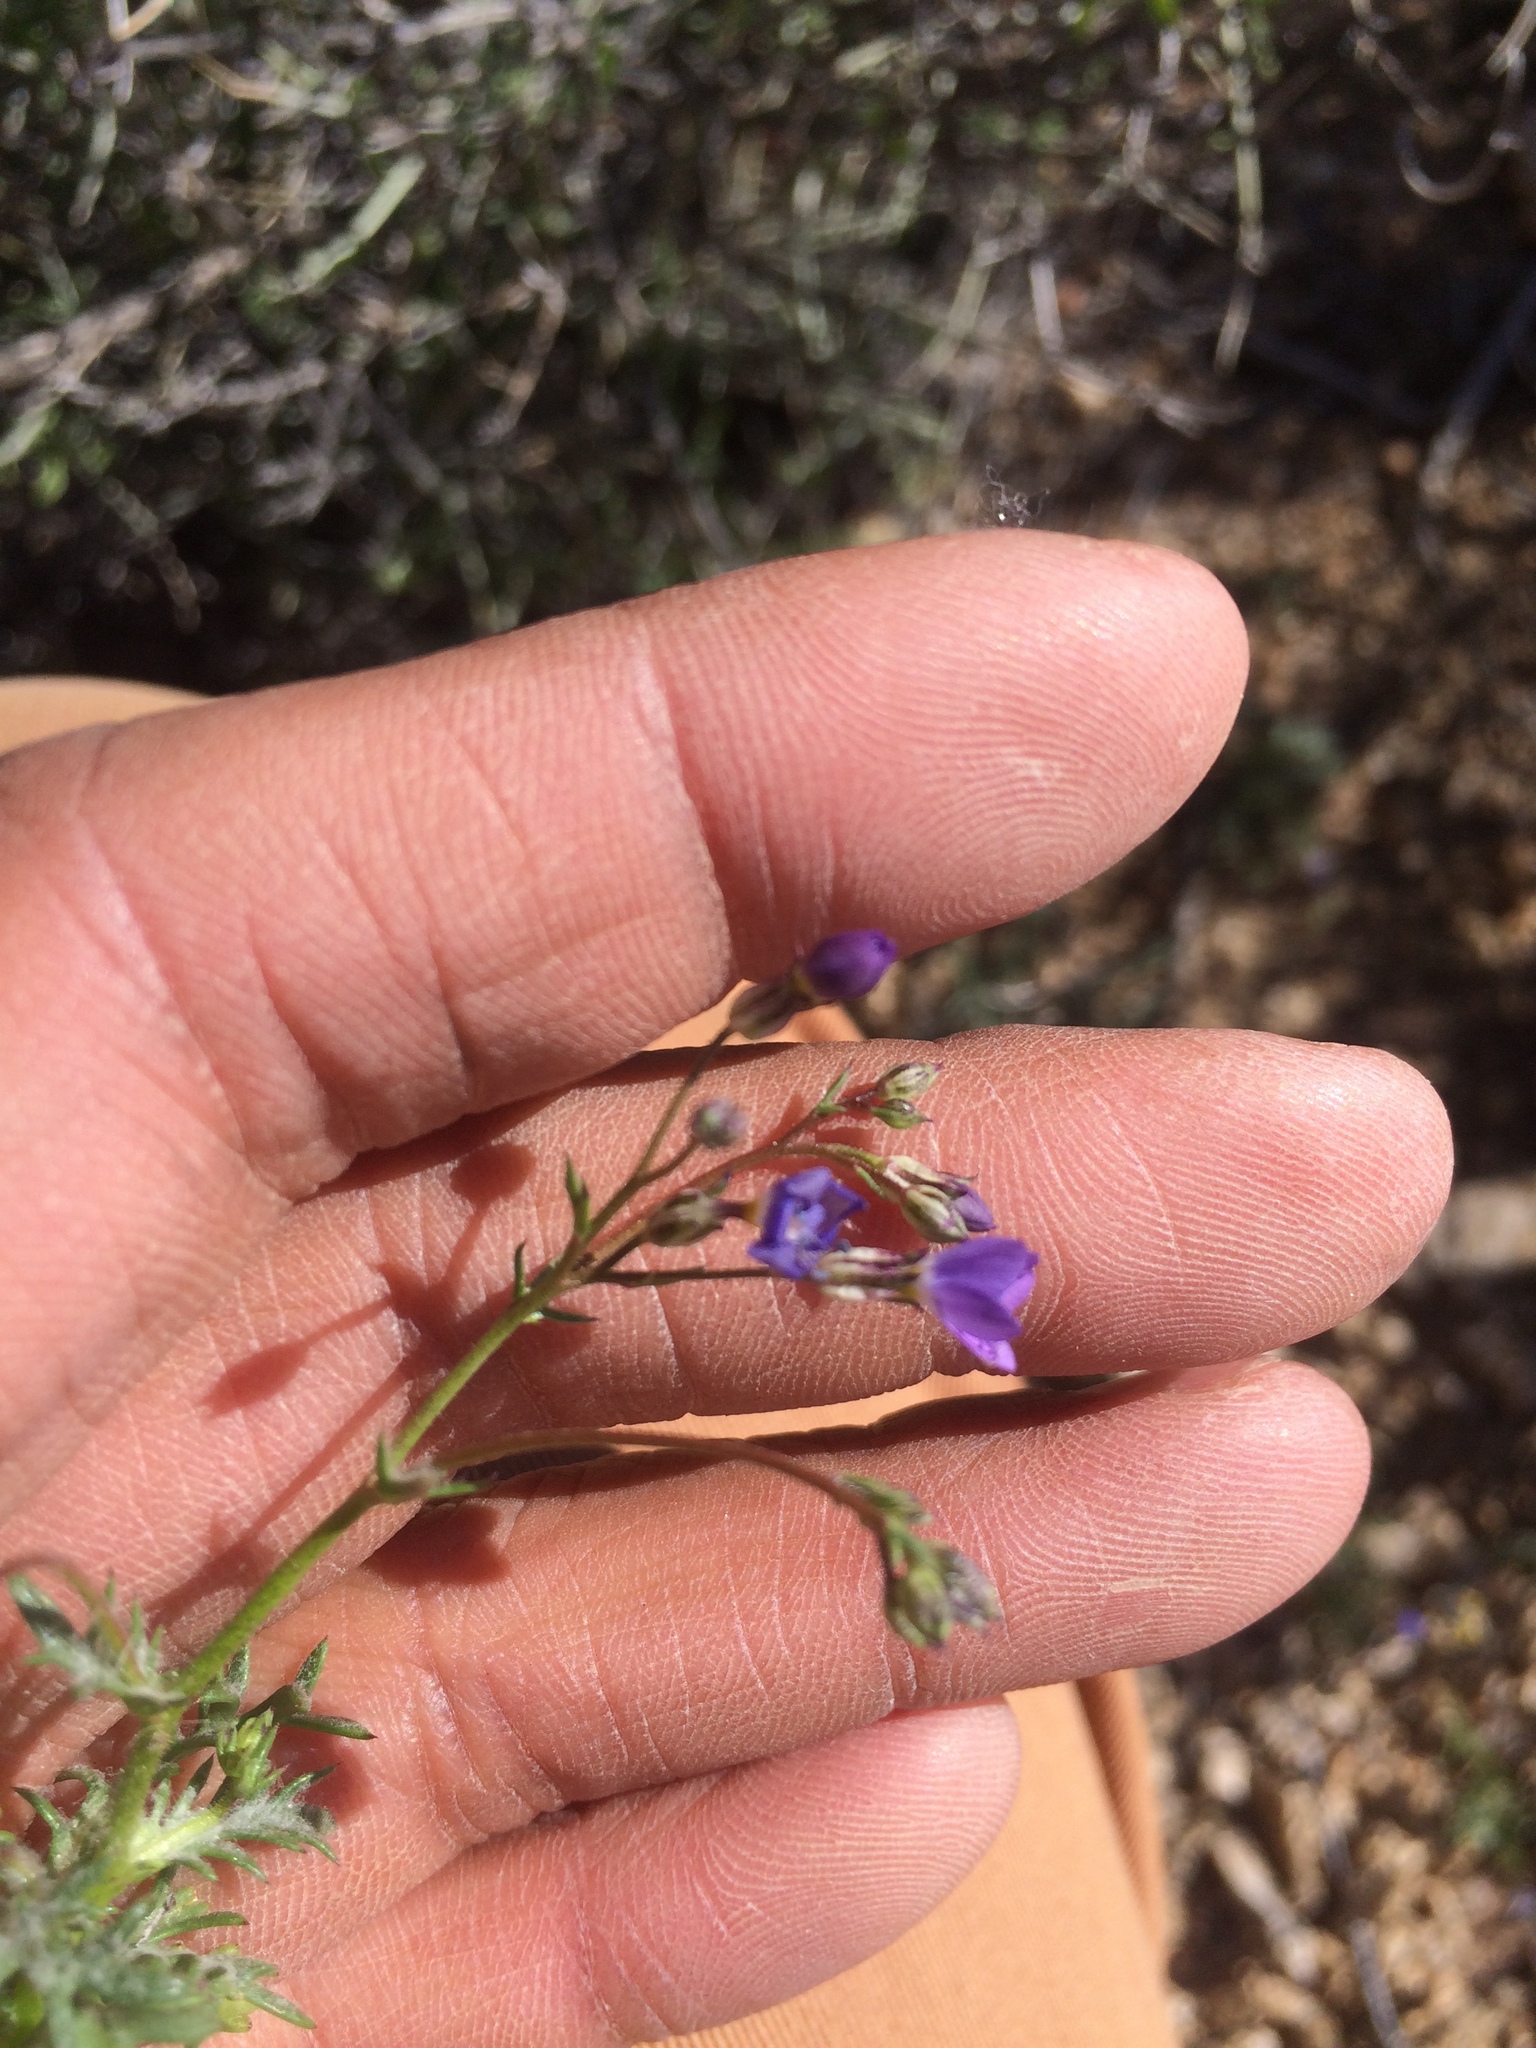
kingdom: Plantae
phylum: Tracheophyta
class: Magnoliopsida
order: Ericales
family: Polemoniaceae
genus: Gilia
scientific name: Gilia brecciarum
